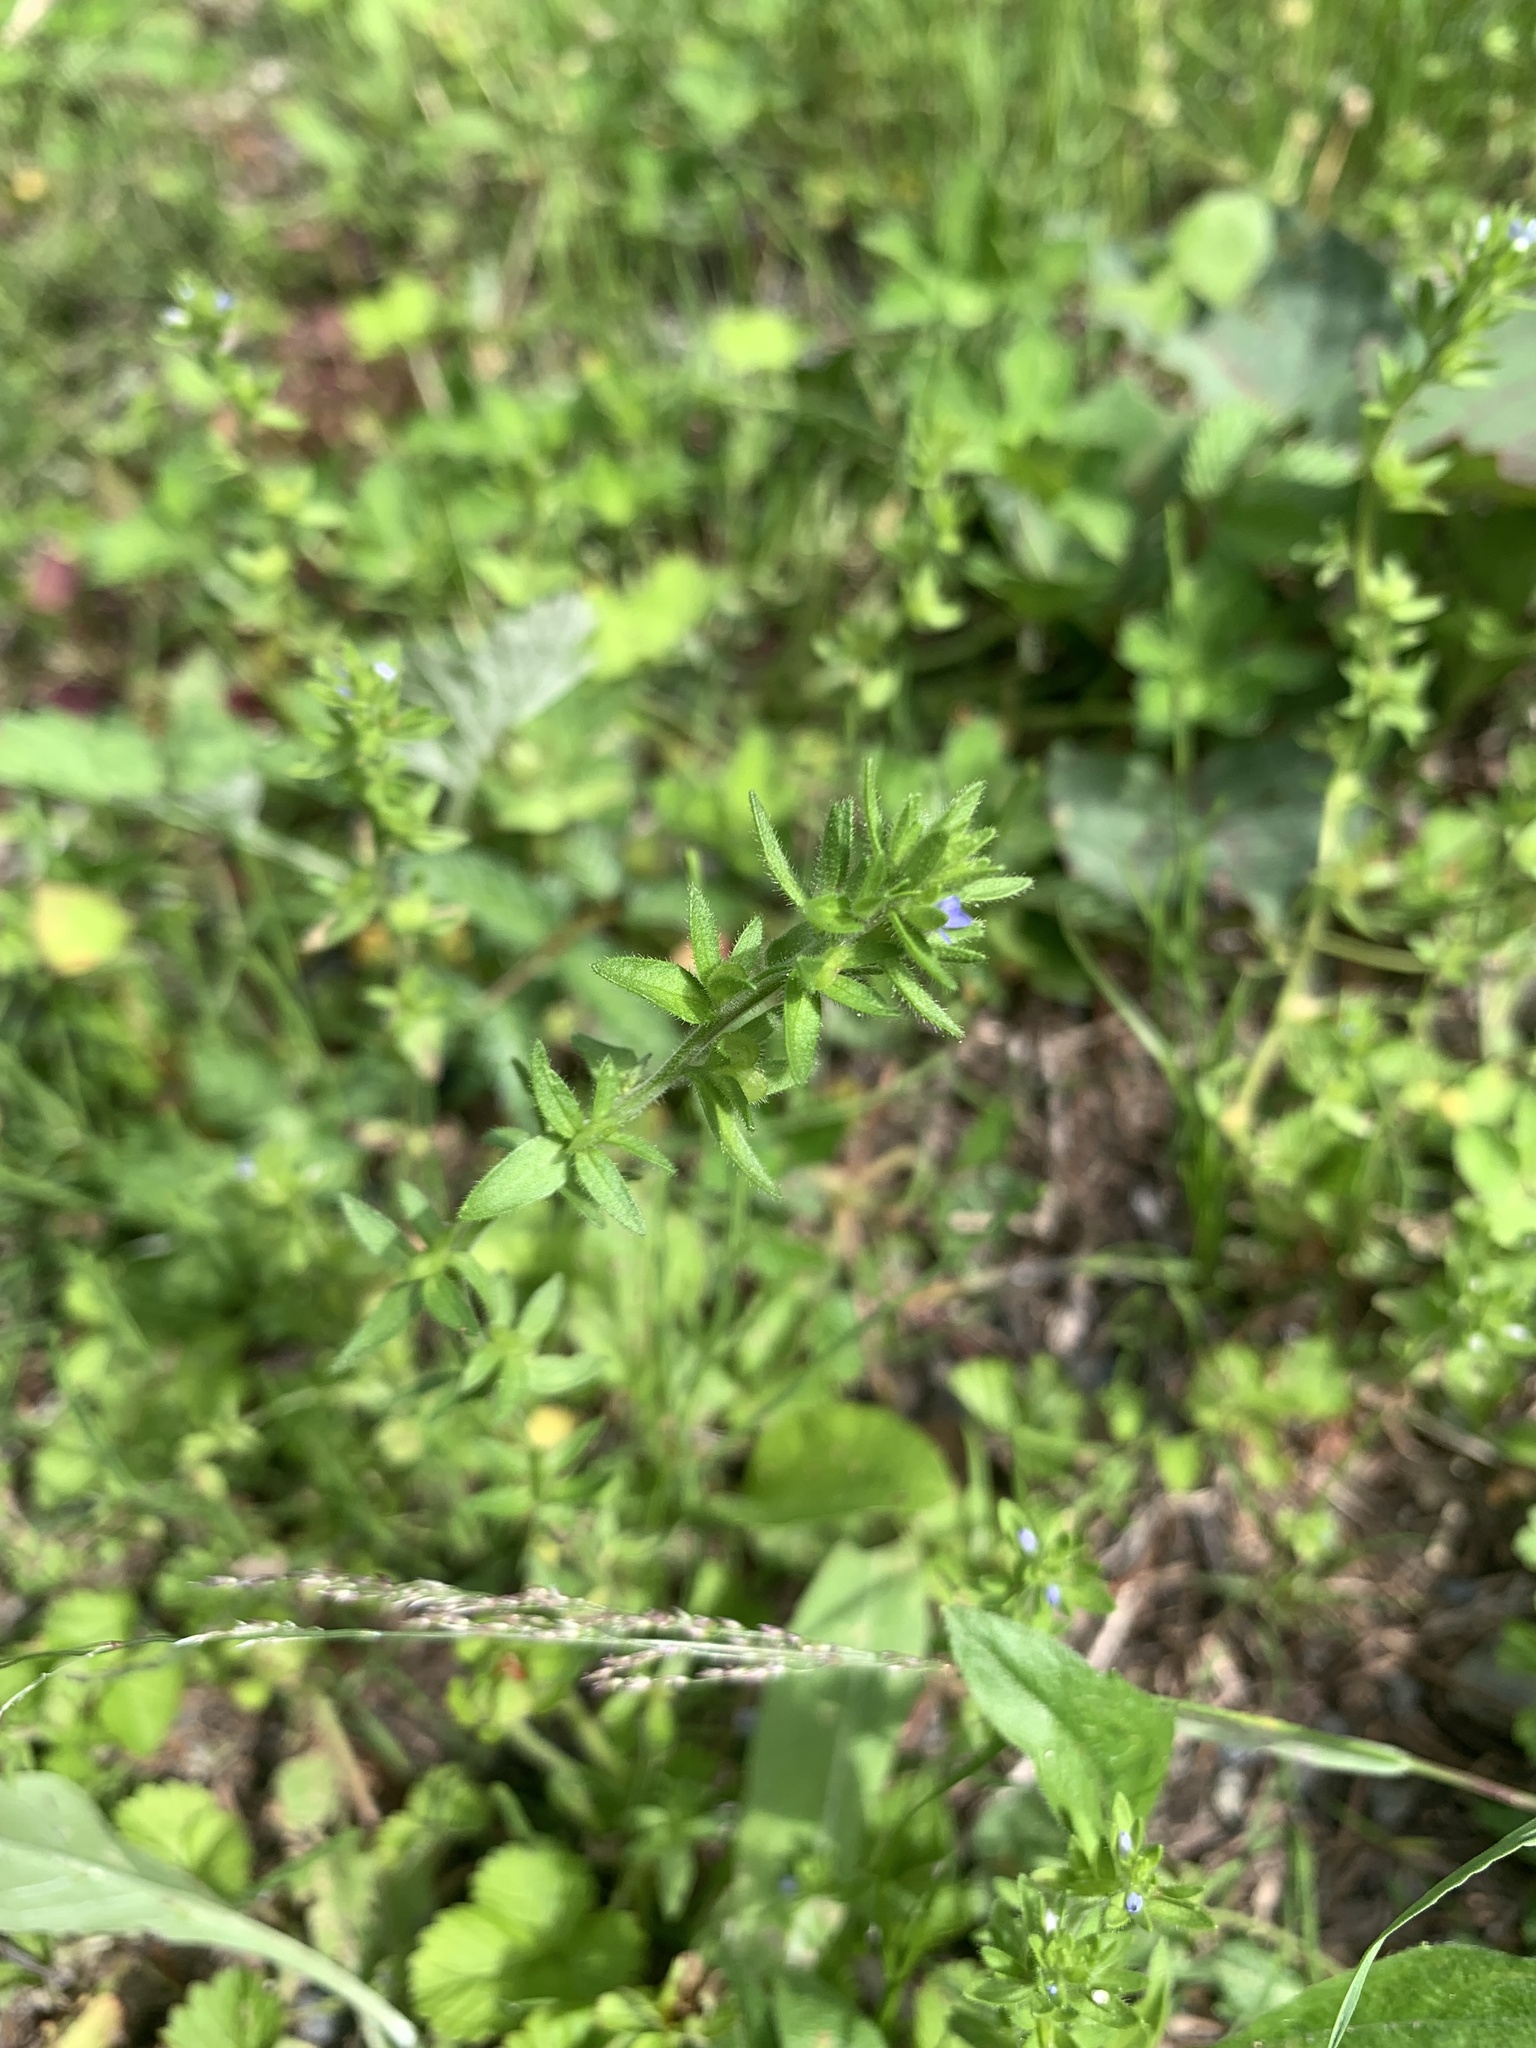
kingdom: Plantae
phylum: Tracheophyta
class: Magnoliopsida
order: Lamiales
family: Plantaginaceae
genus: Veronica
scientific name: Veronica arvensis
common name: Corn speedwell
